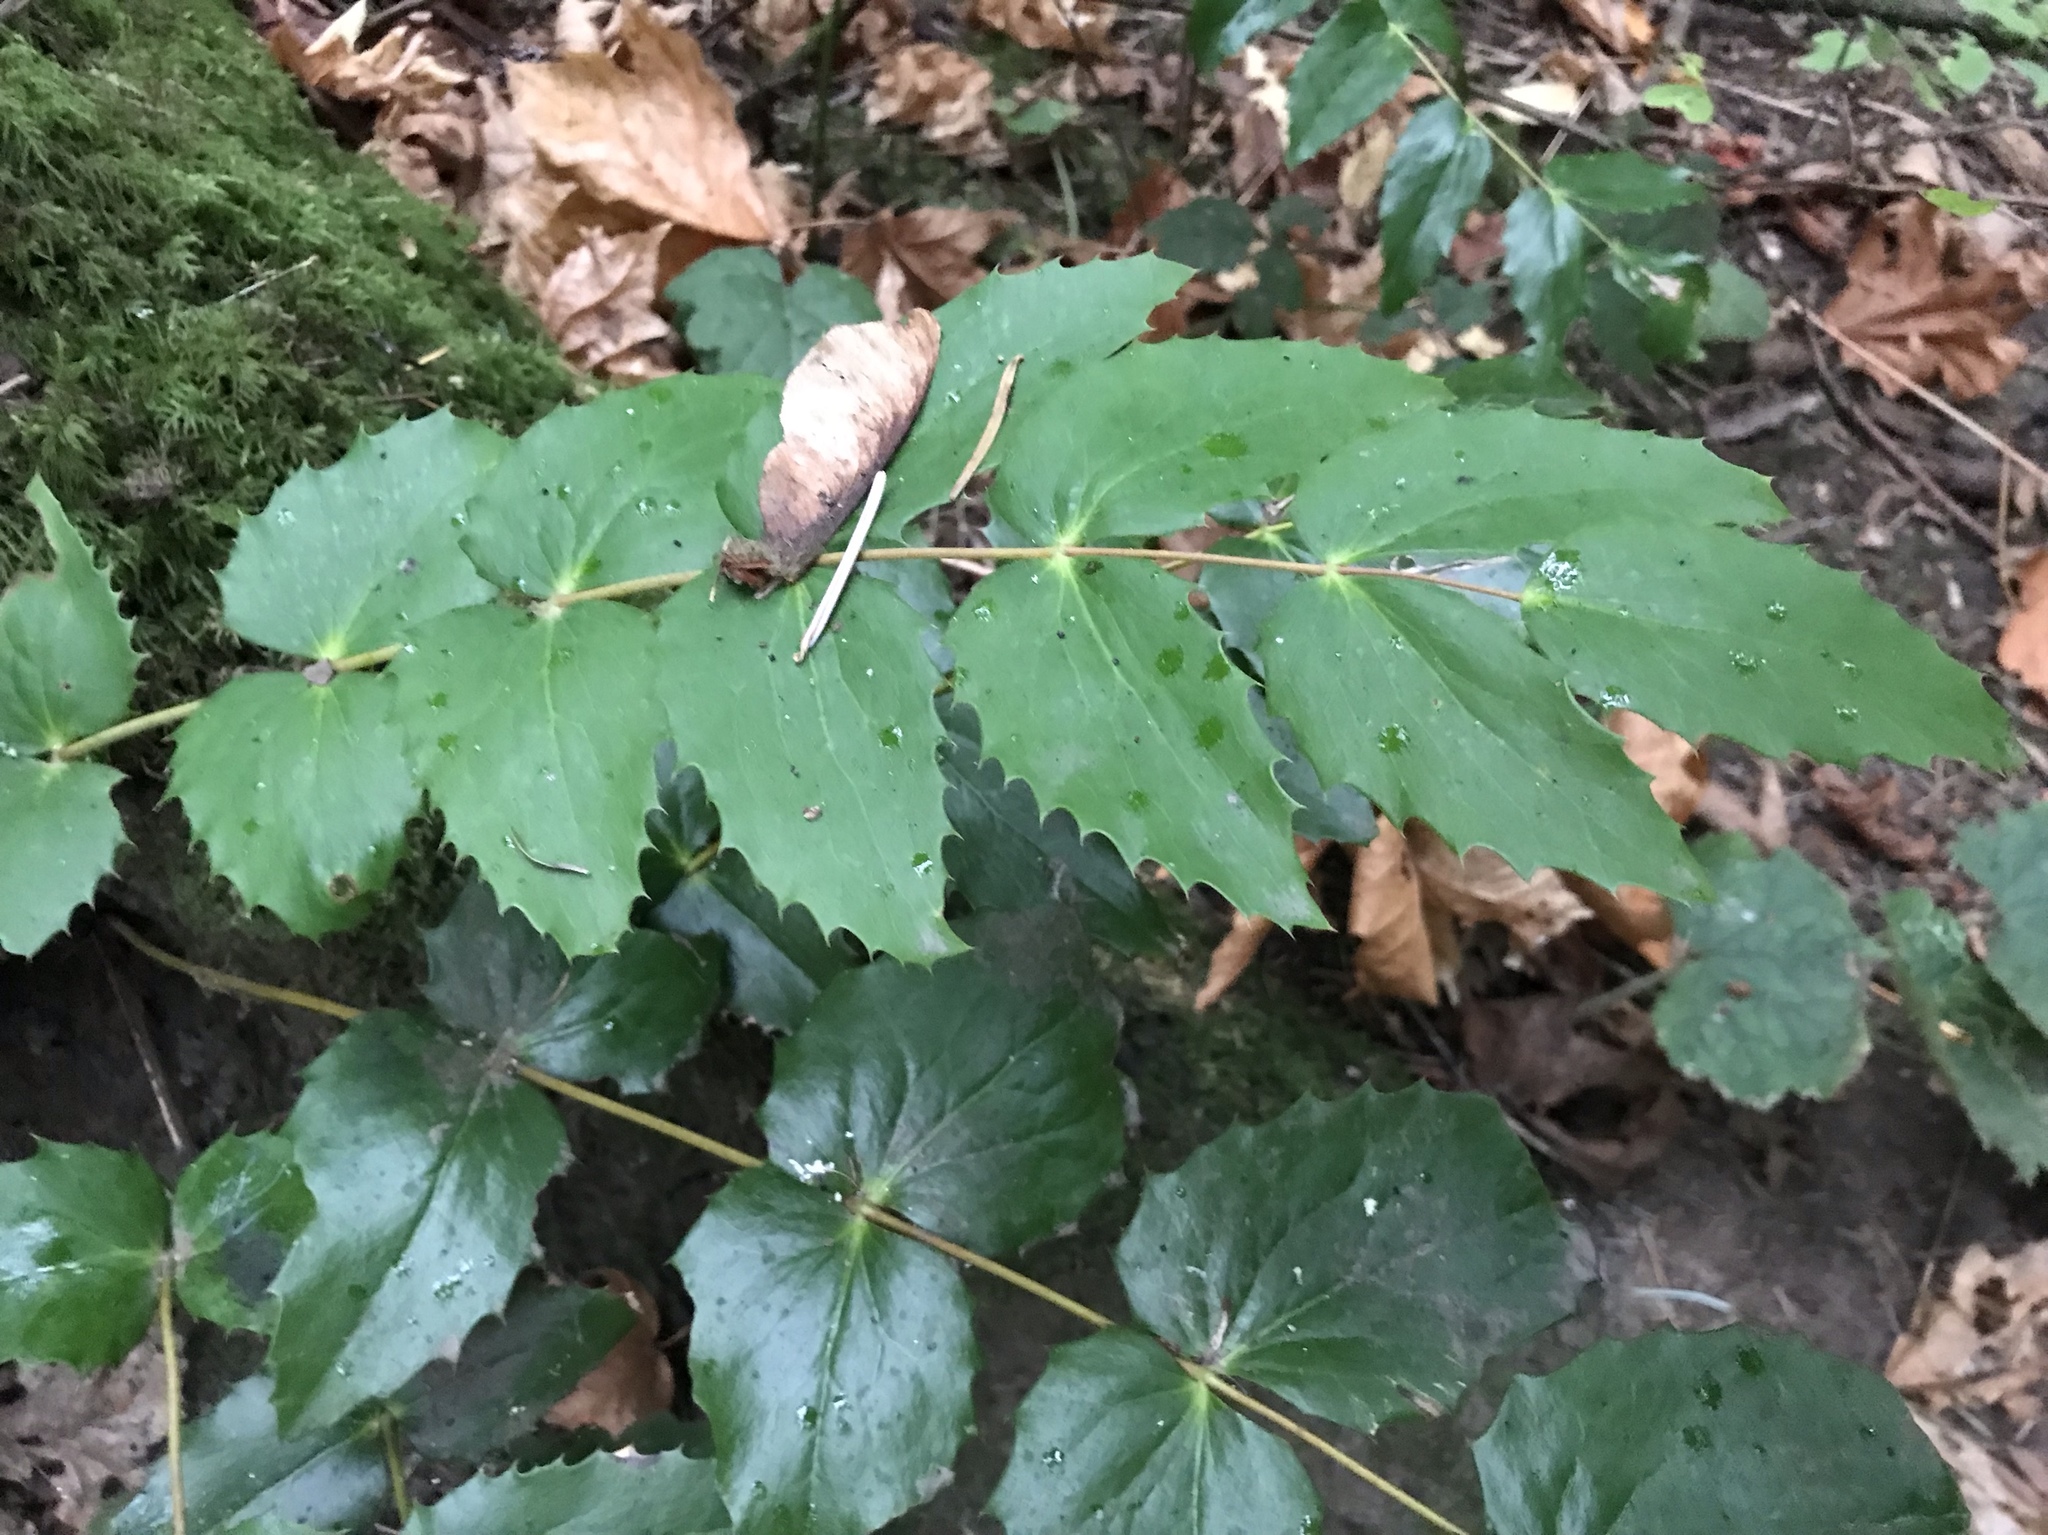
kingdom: Plantae
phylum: Tracheophyta
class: Magnoliopsida
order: Ranunculales
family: Berberidaceae
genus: Mahonia
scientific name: Mahonia nervosa
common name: Cascade oregon-grape
